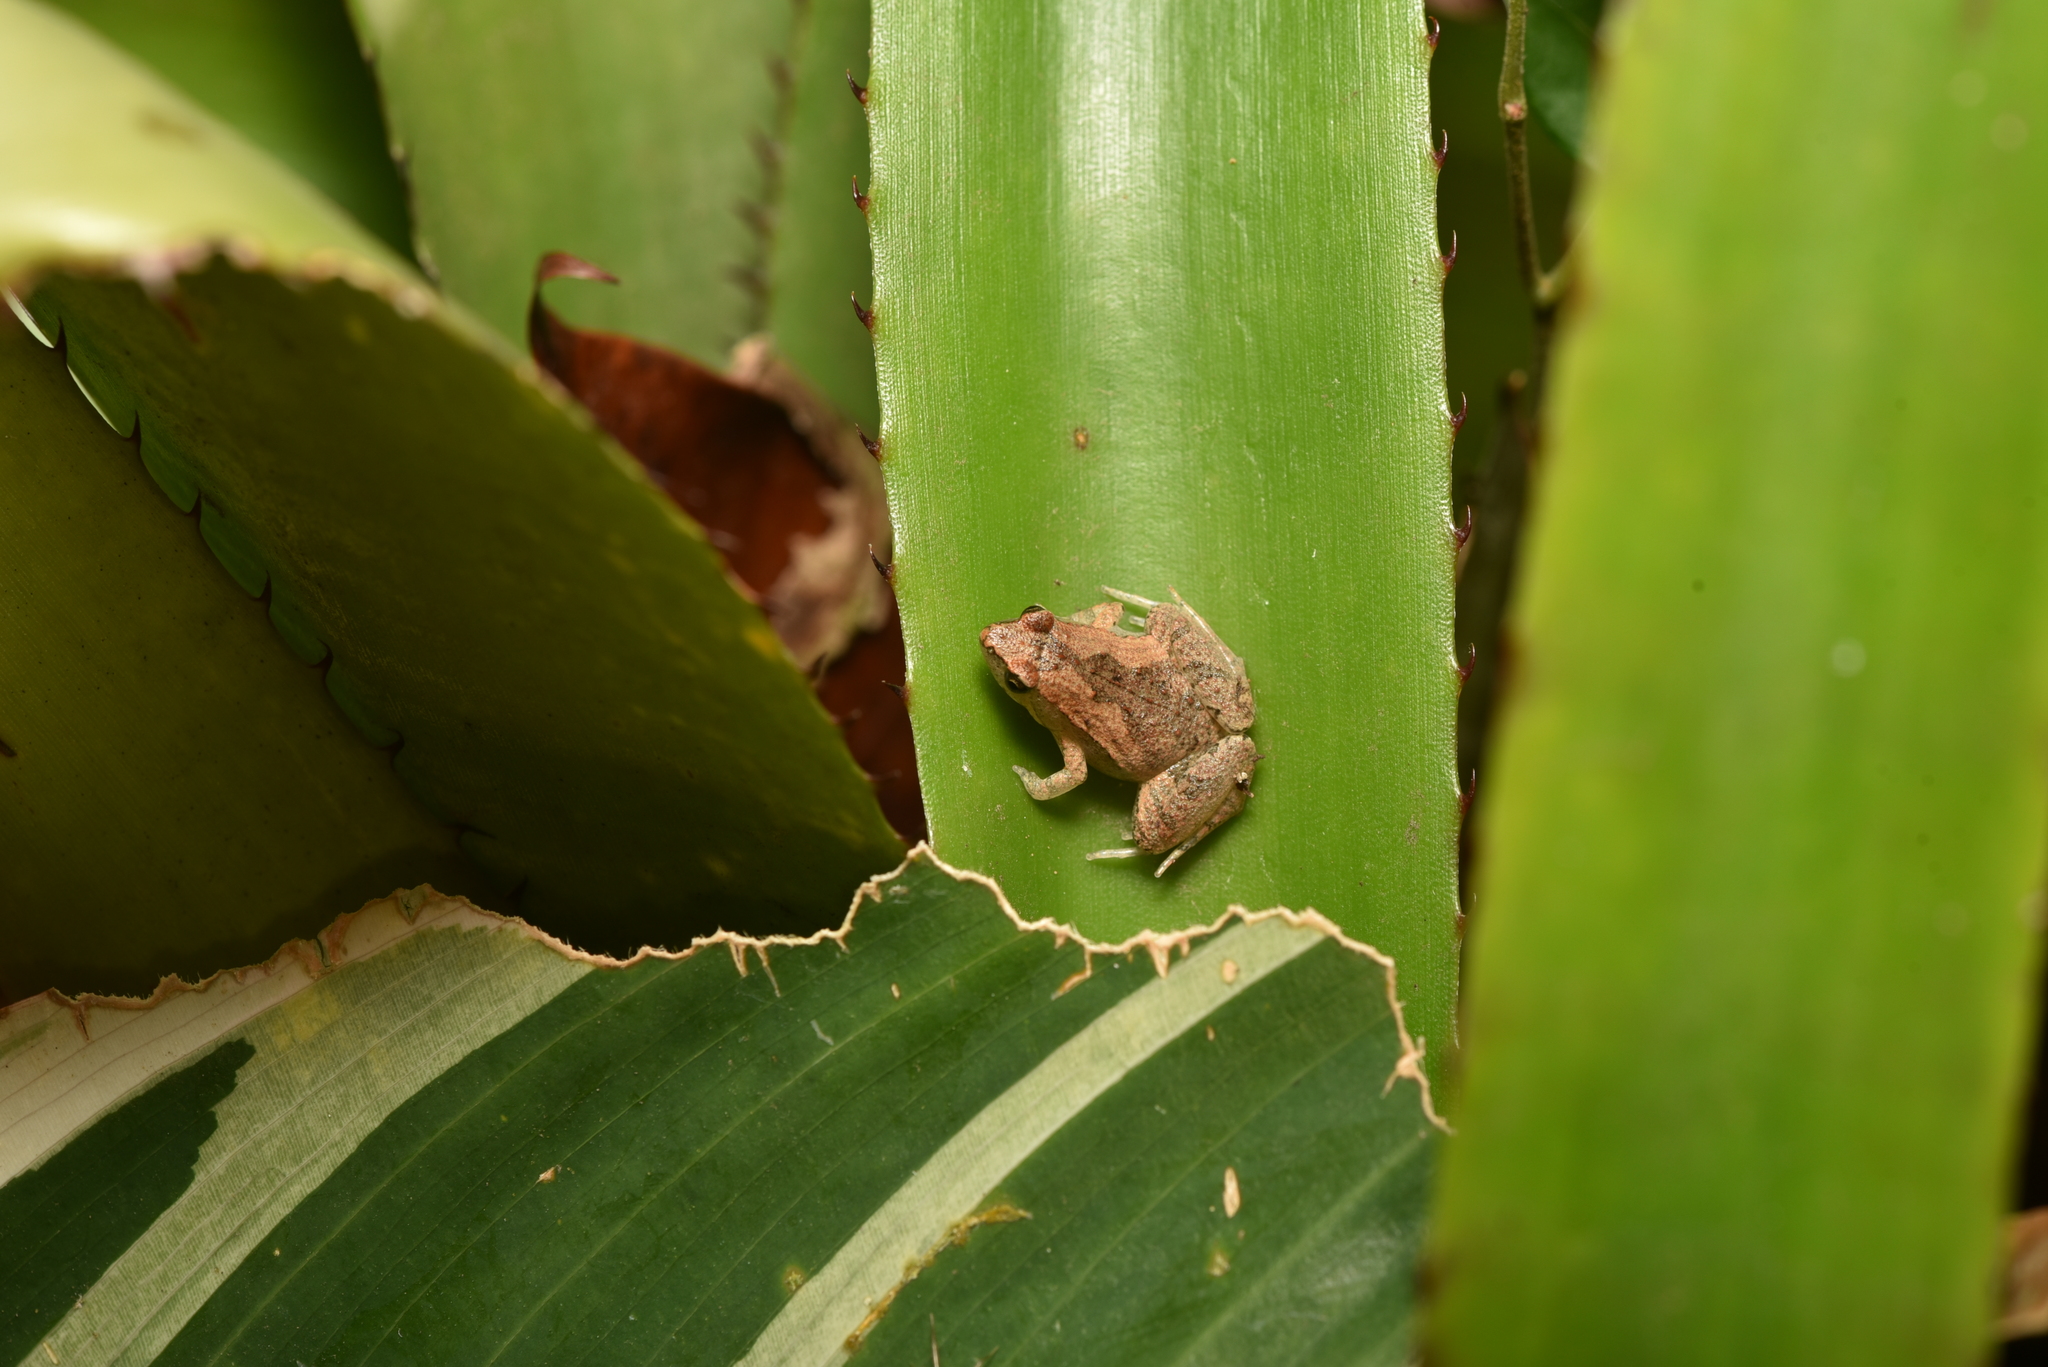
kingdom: Animalia
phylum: Chordata
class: Amphibia
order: Anura
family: Microhylidae
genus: Microhyla
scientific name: Microhyla fissipes
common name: Ornate narrow-mouthed frog
